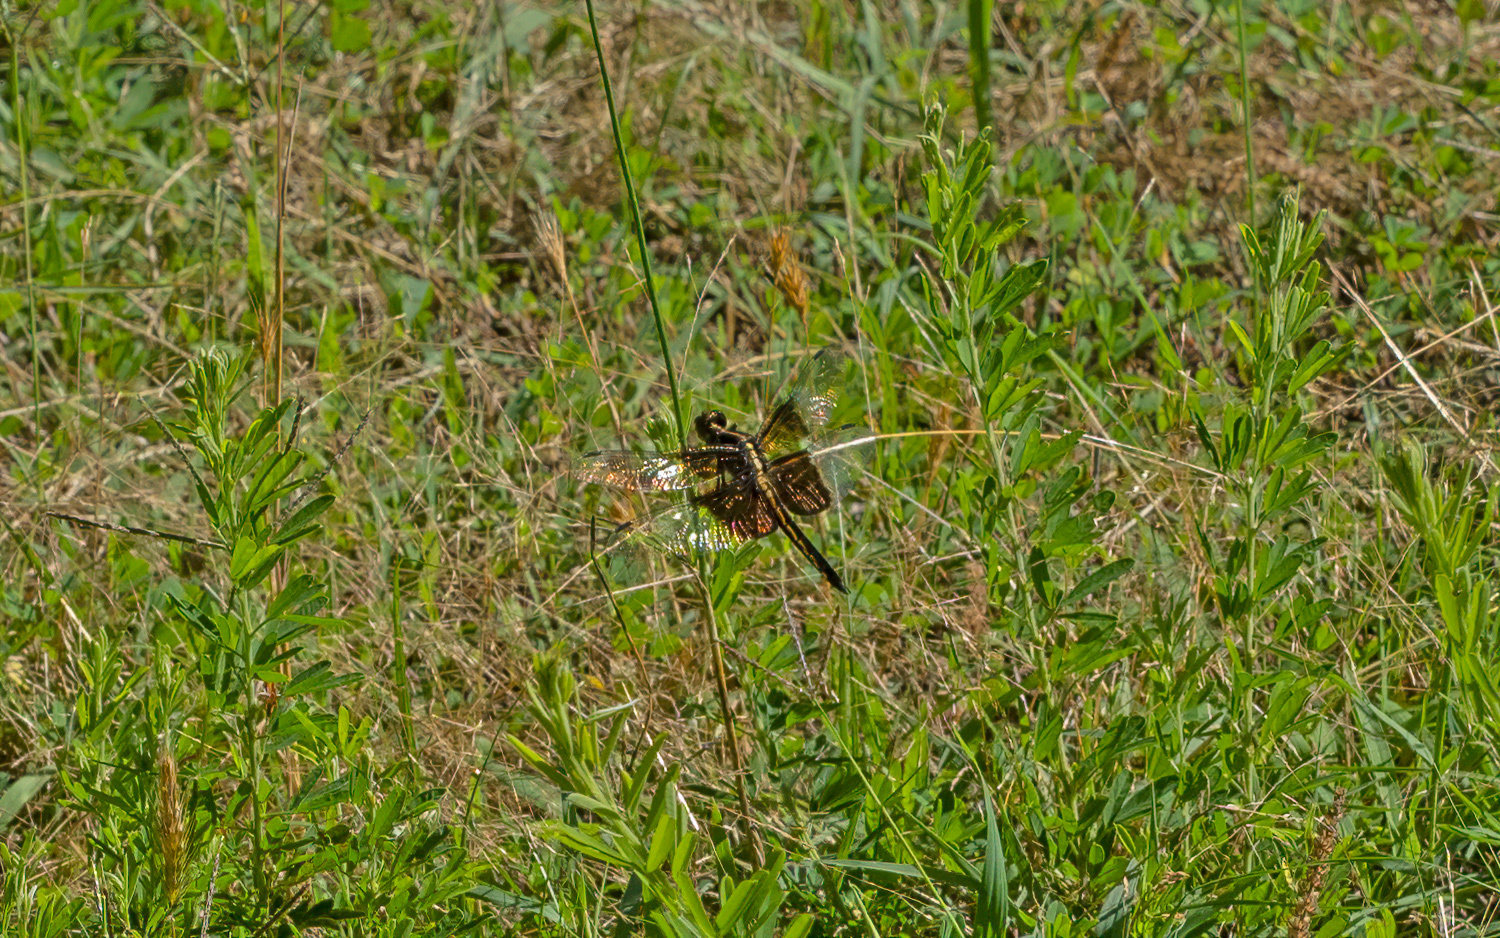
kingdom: Animalia
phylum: Arthropoda
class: Insecta
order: Odonata
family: Libellulidae
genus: Libellula
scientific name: Libellula luctuosa
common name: Widow skimmer
